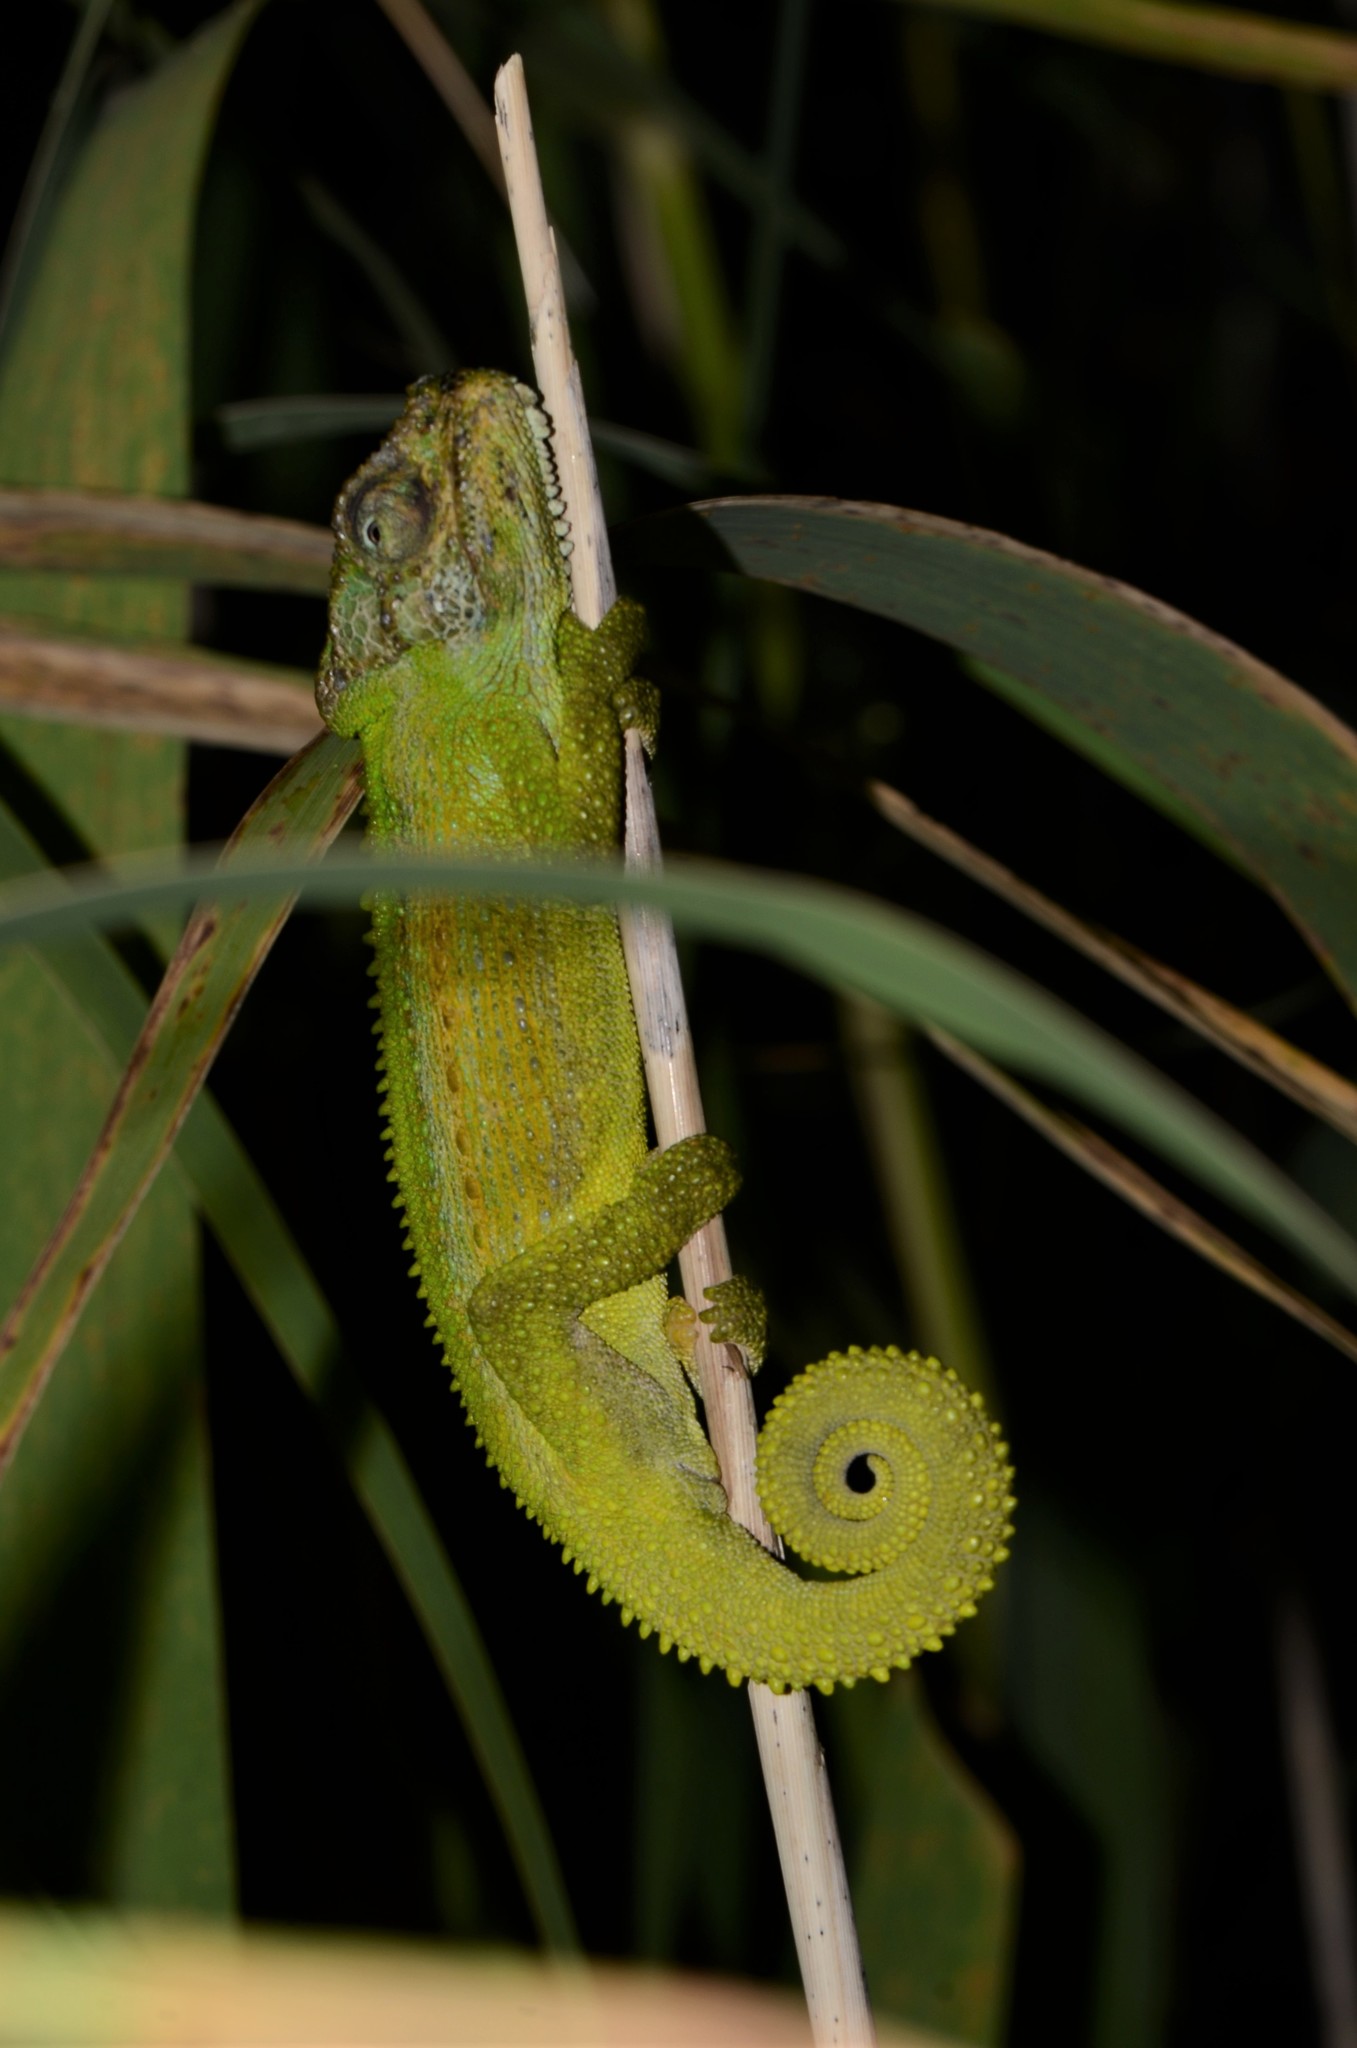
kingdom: Animalia
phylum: Chordata
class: Squamata
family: Chamaeleonidae
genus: Bradypodion
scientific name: Bradypodion pumilum
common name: Cape dwarf chameleon
